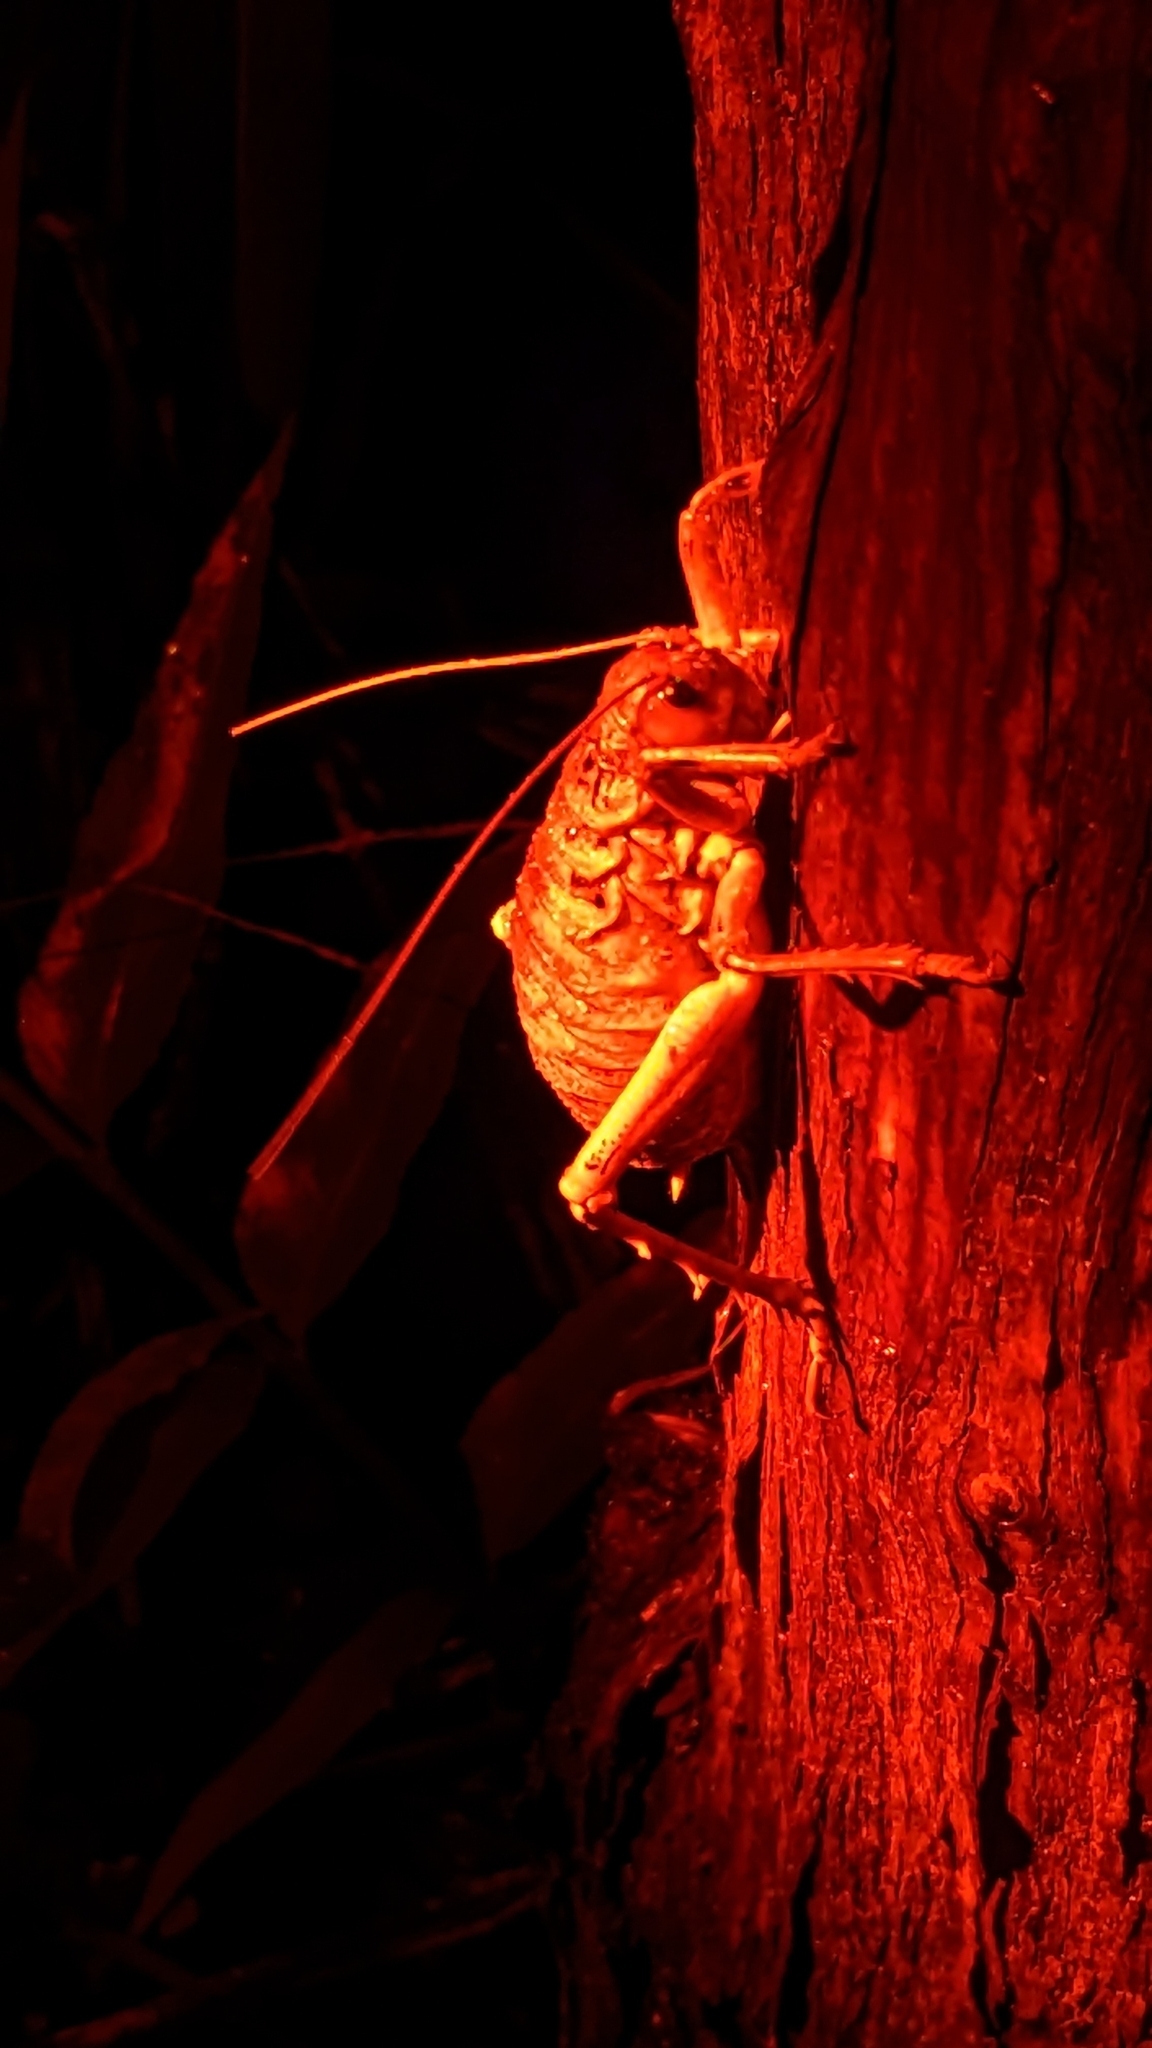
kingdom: Animalia
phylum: Arthropoda
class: Insecta
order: Orthoptera
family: Anostostomatidae
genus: Deinacrida
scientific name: Deinacrida rugosa
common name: Stephens island weta
